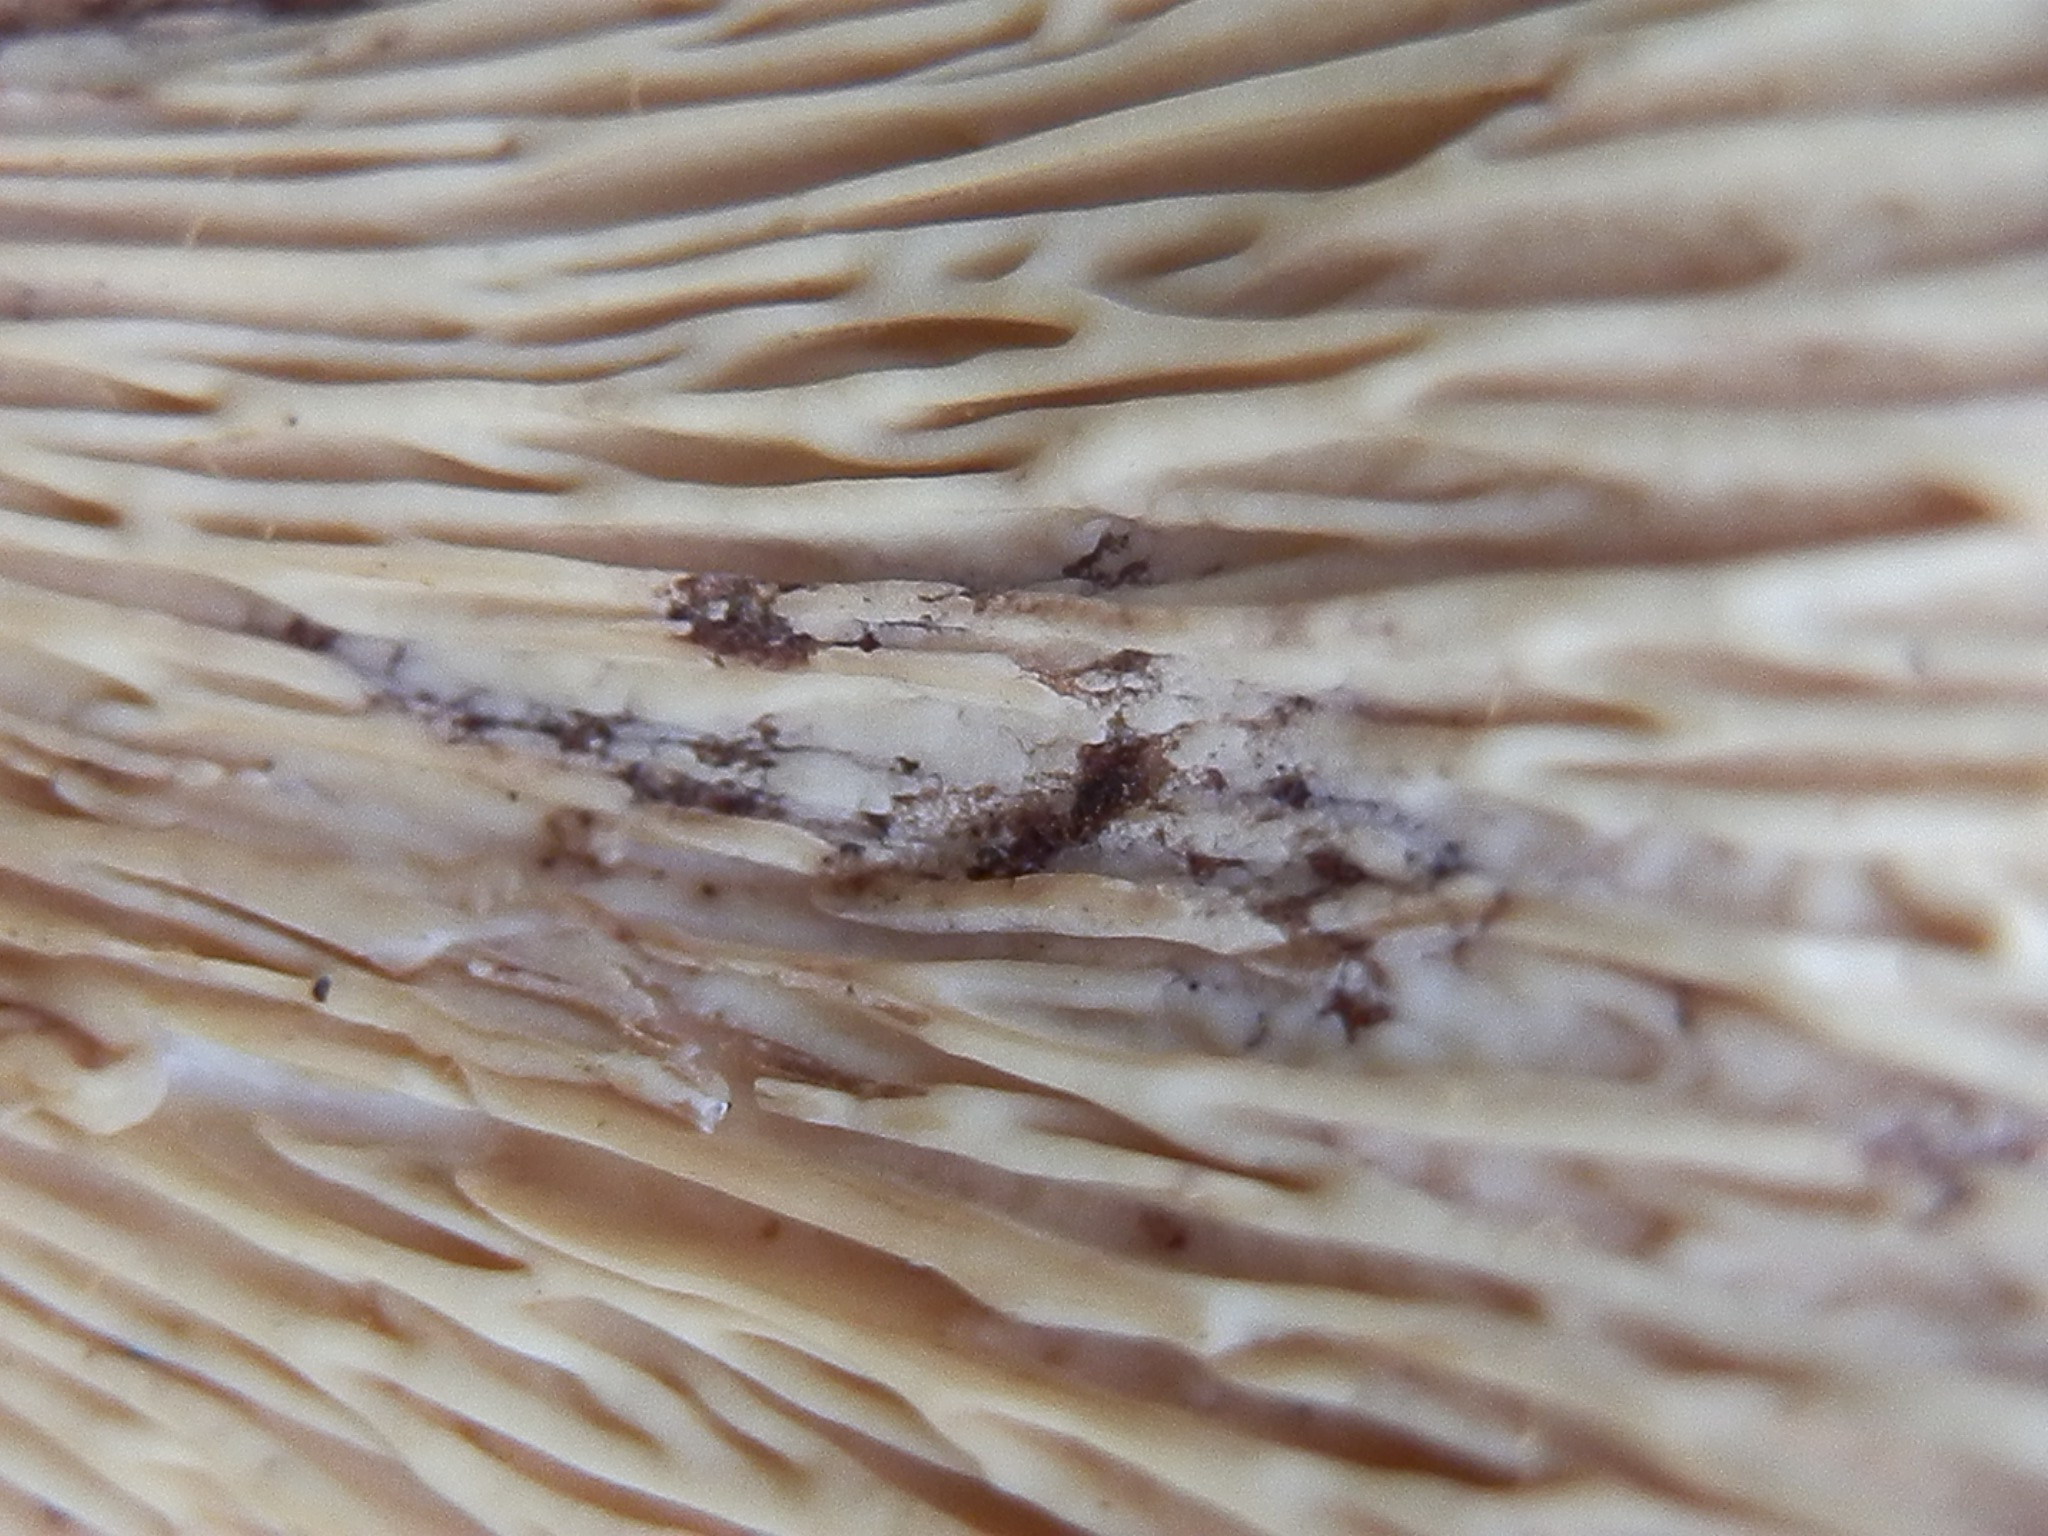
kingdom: Fungi
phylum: Basidiomycota
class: Agaricomycetes
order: Gomphales
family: Gomphaceae
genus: Turbinellus
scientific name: Turbinellus floccosus
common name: Scaly chanterelle
